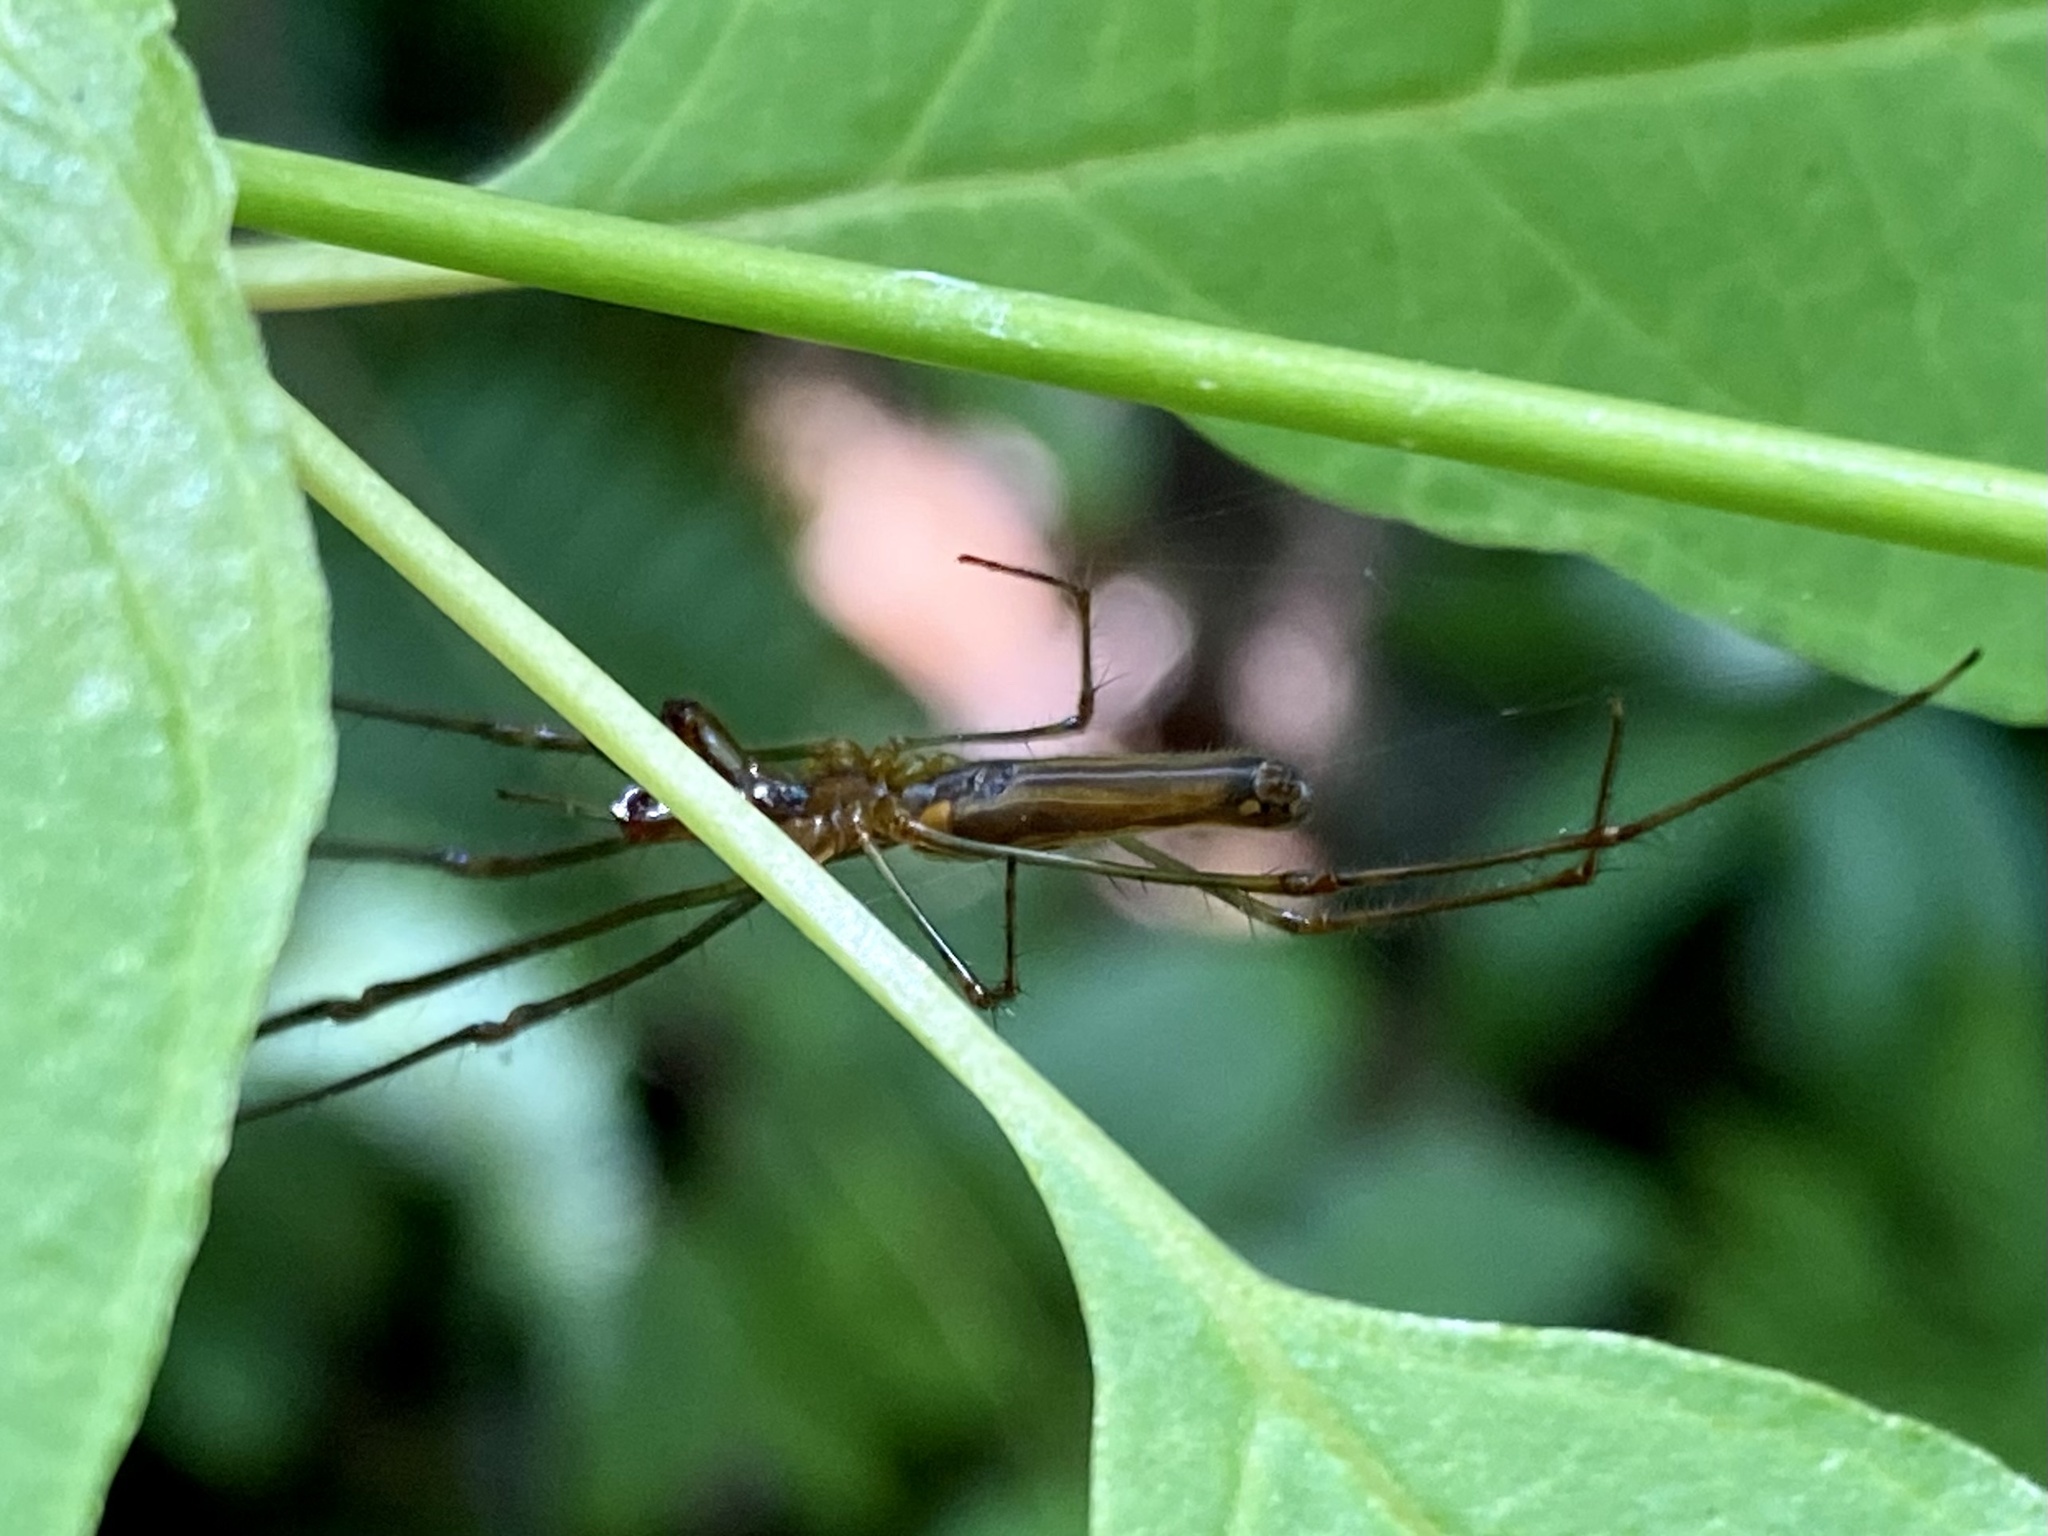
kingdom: Animalia
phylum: Arthropoda
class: Arachnida
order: Araneae
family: Tetragnathidae
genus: Tetragnatha
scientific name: Tetragnatha
